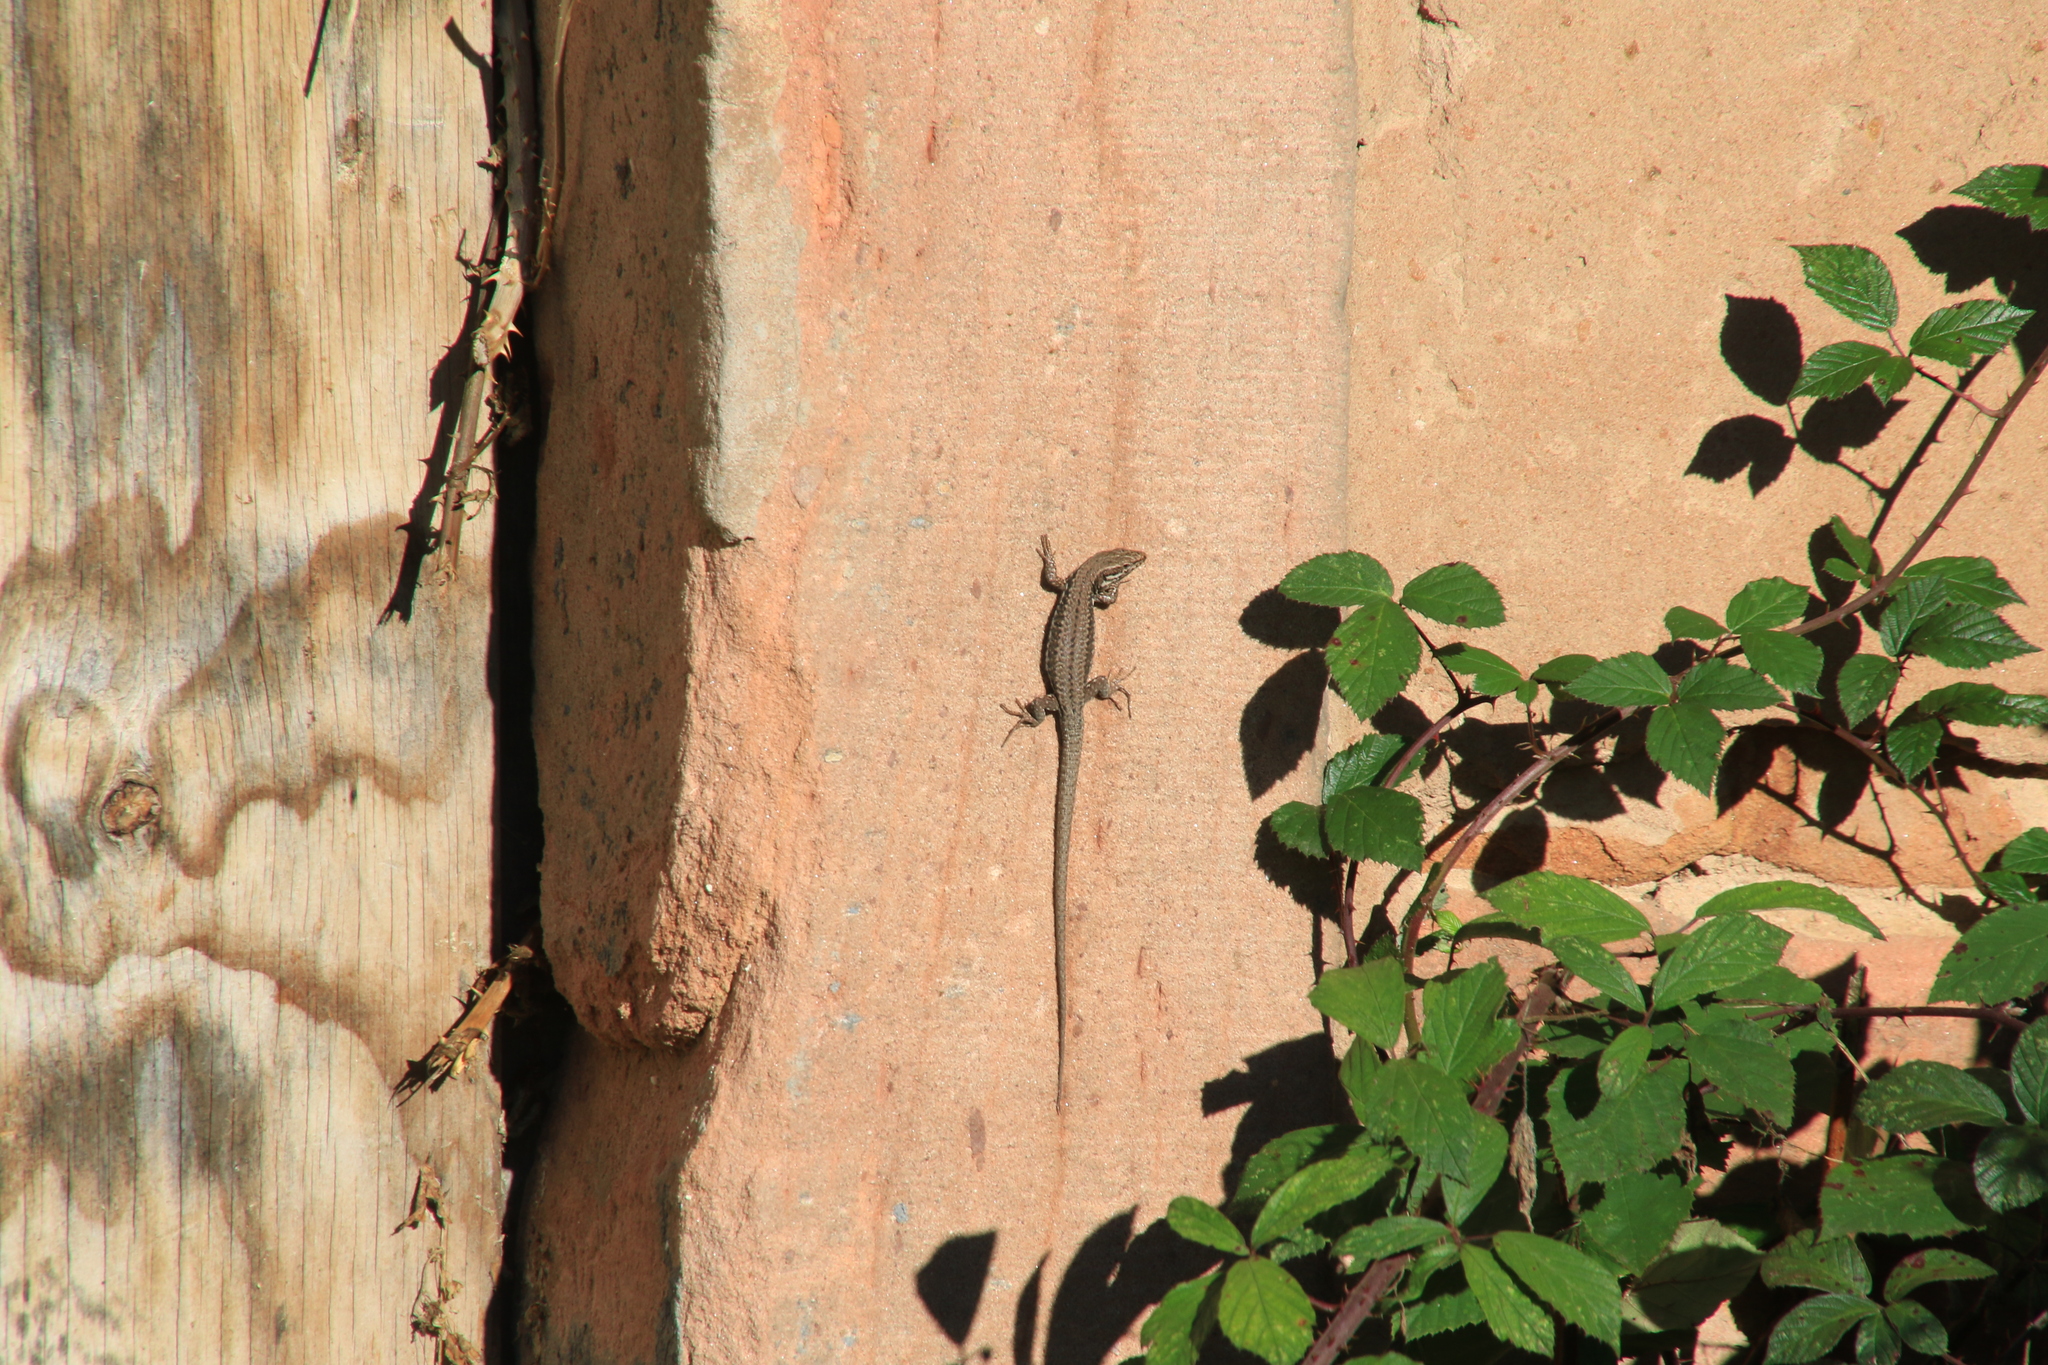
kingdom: Animalia
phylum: Chordata
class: Squamata
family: Lacertidae
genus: Podarcis
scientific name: Podarcis muralis
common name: Common wall lizard
